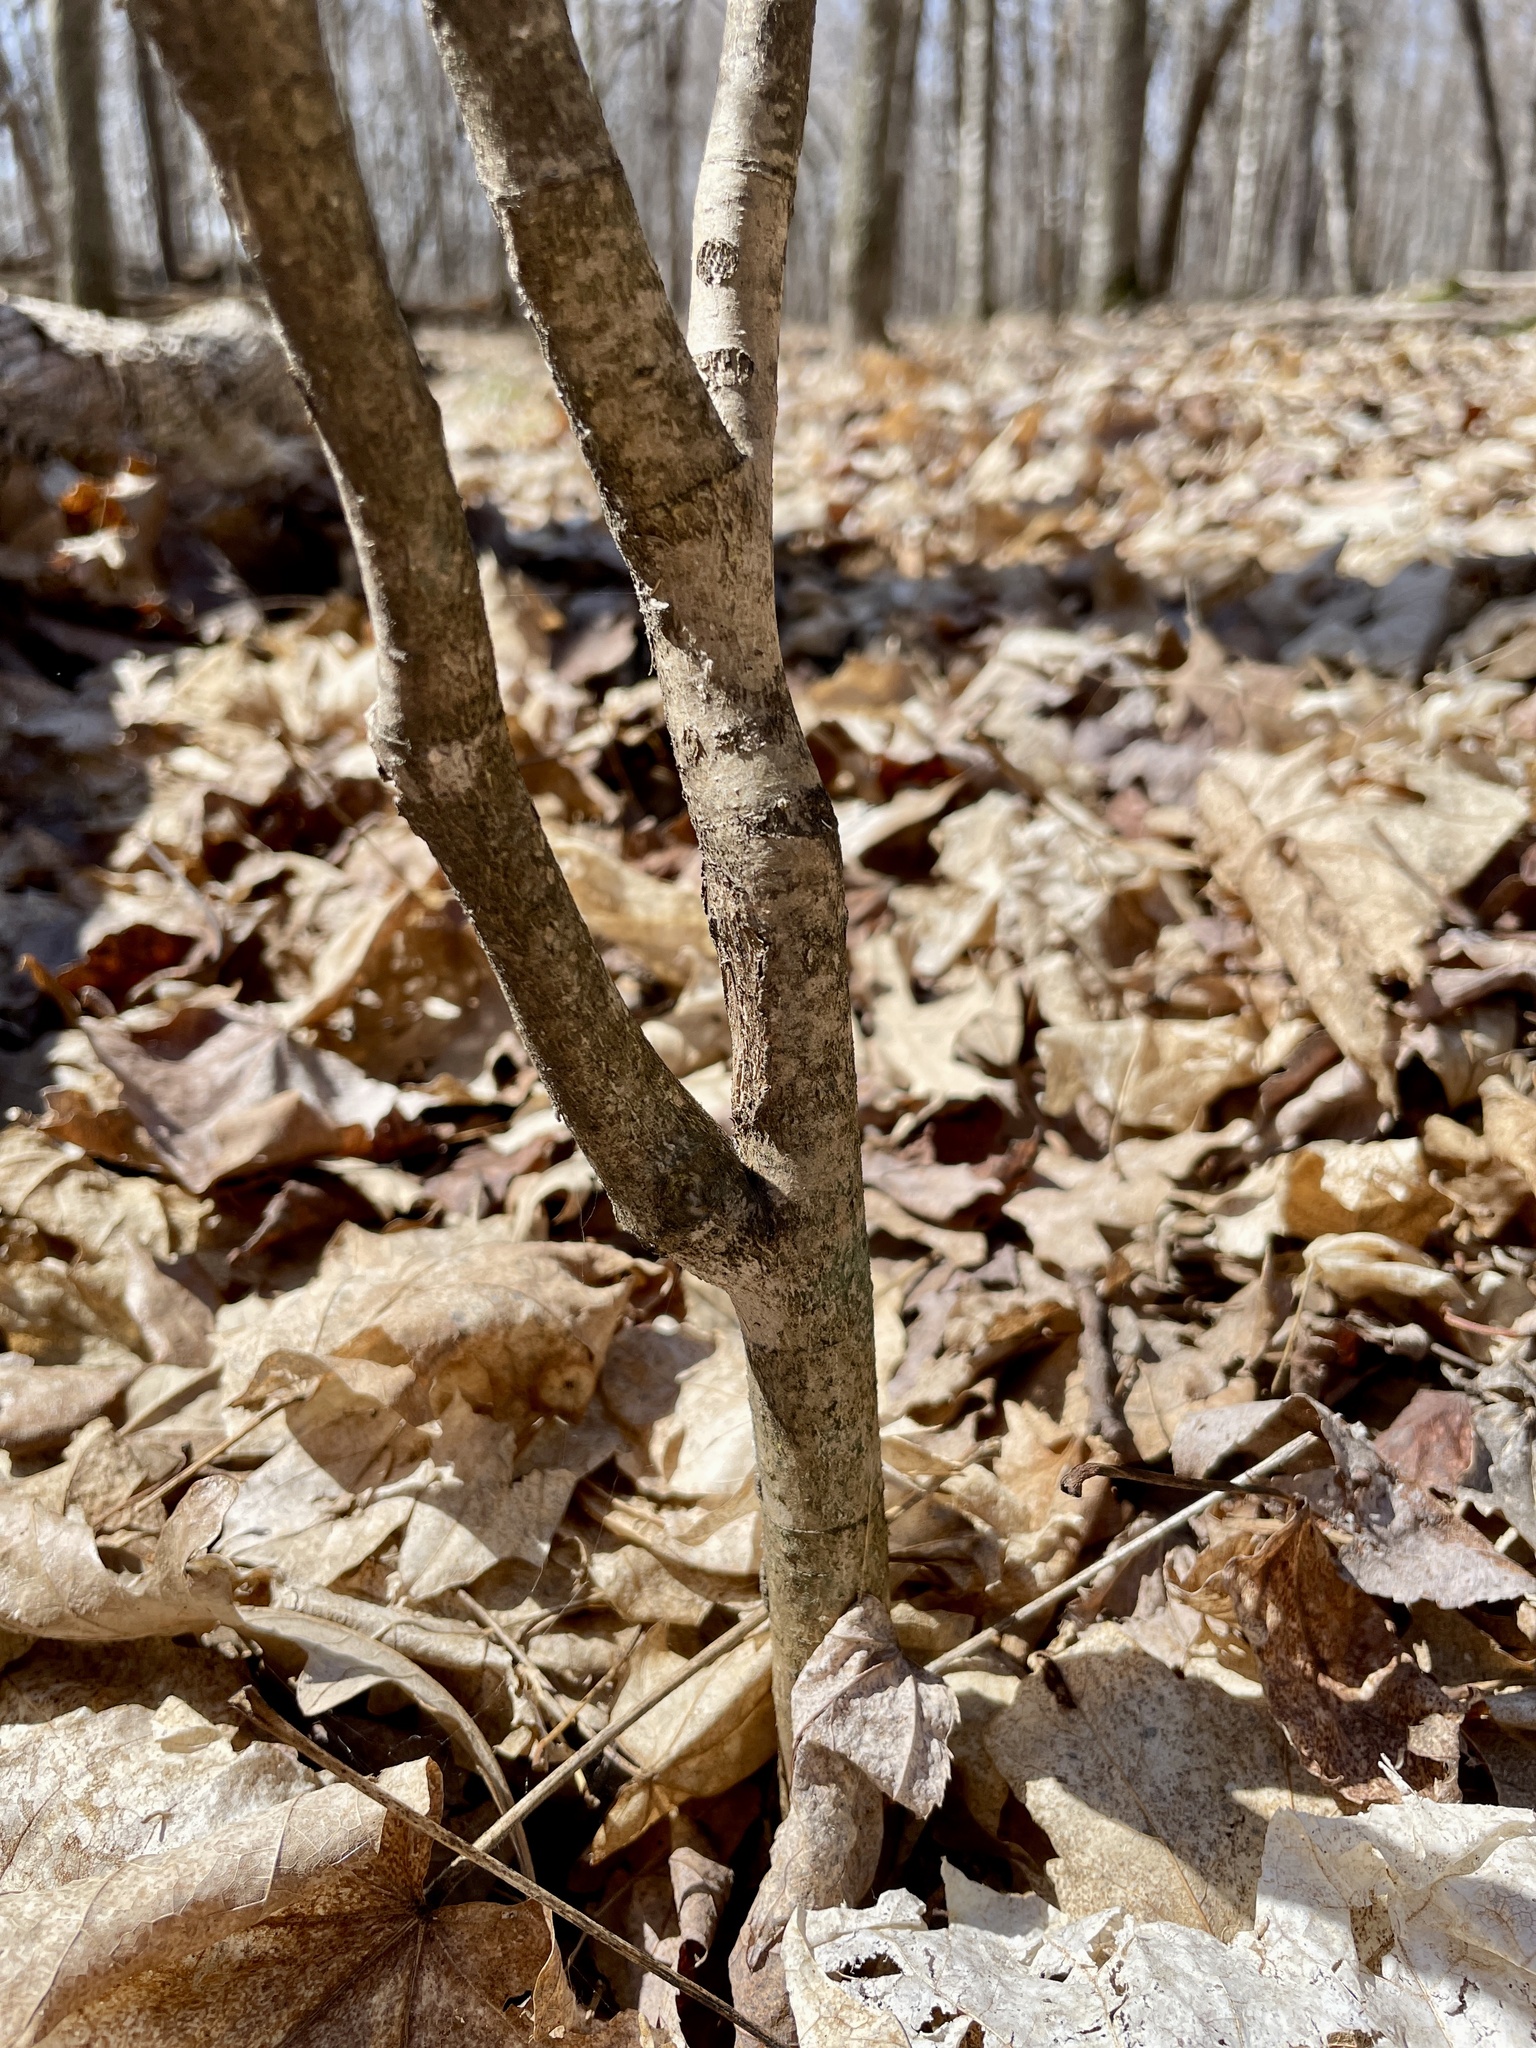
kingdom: Plantae
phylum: Tracheophyta
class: Magnoliopsida
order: Malvales
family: Thymelaeaceae
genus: Dirca
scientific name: Dirca palustris
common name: Leatherwood
